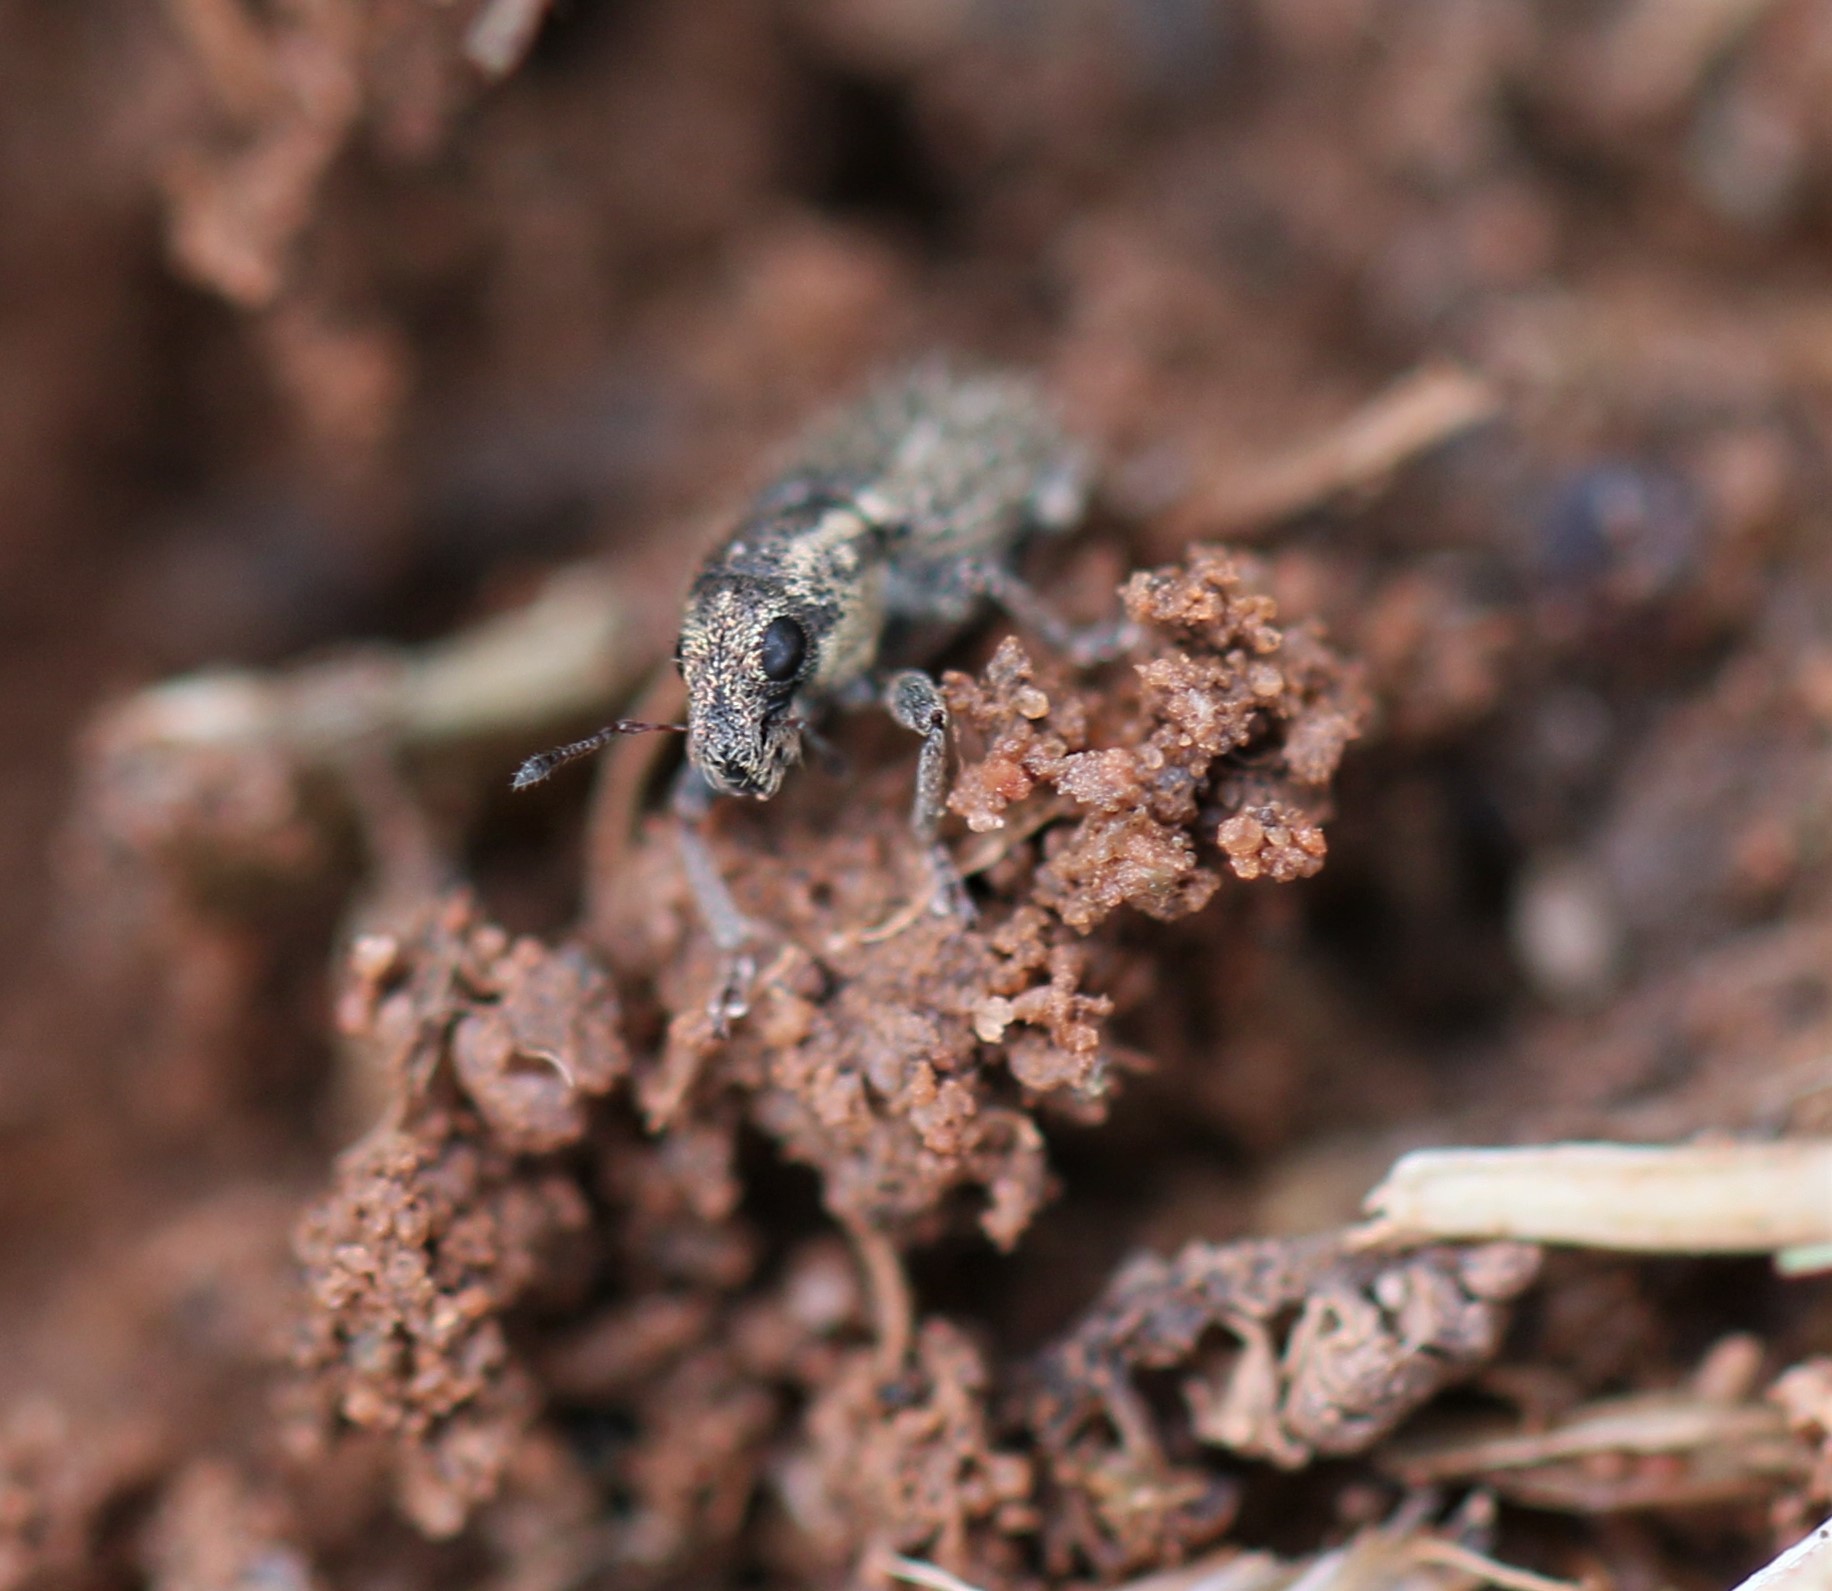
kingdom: Animalia
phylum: Arthropoda
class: Insecta
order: Coleoptera
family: Curculionidae
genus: Sitona
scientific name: Sitona hispidulus
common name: Clover weevil
